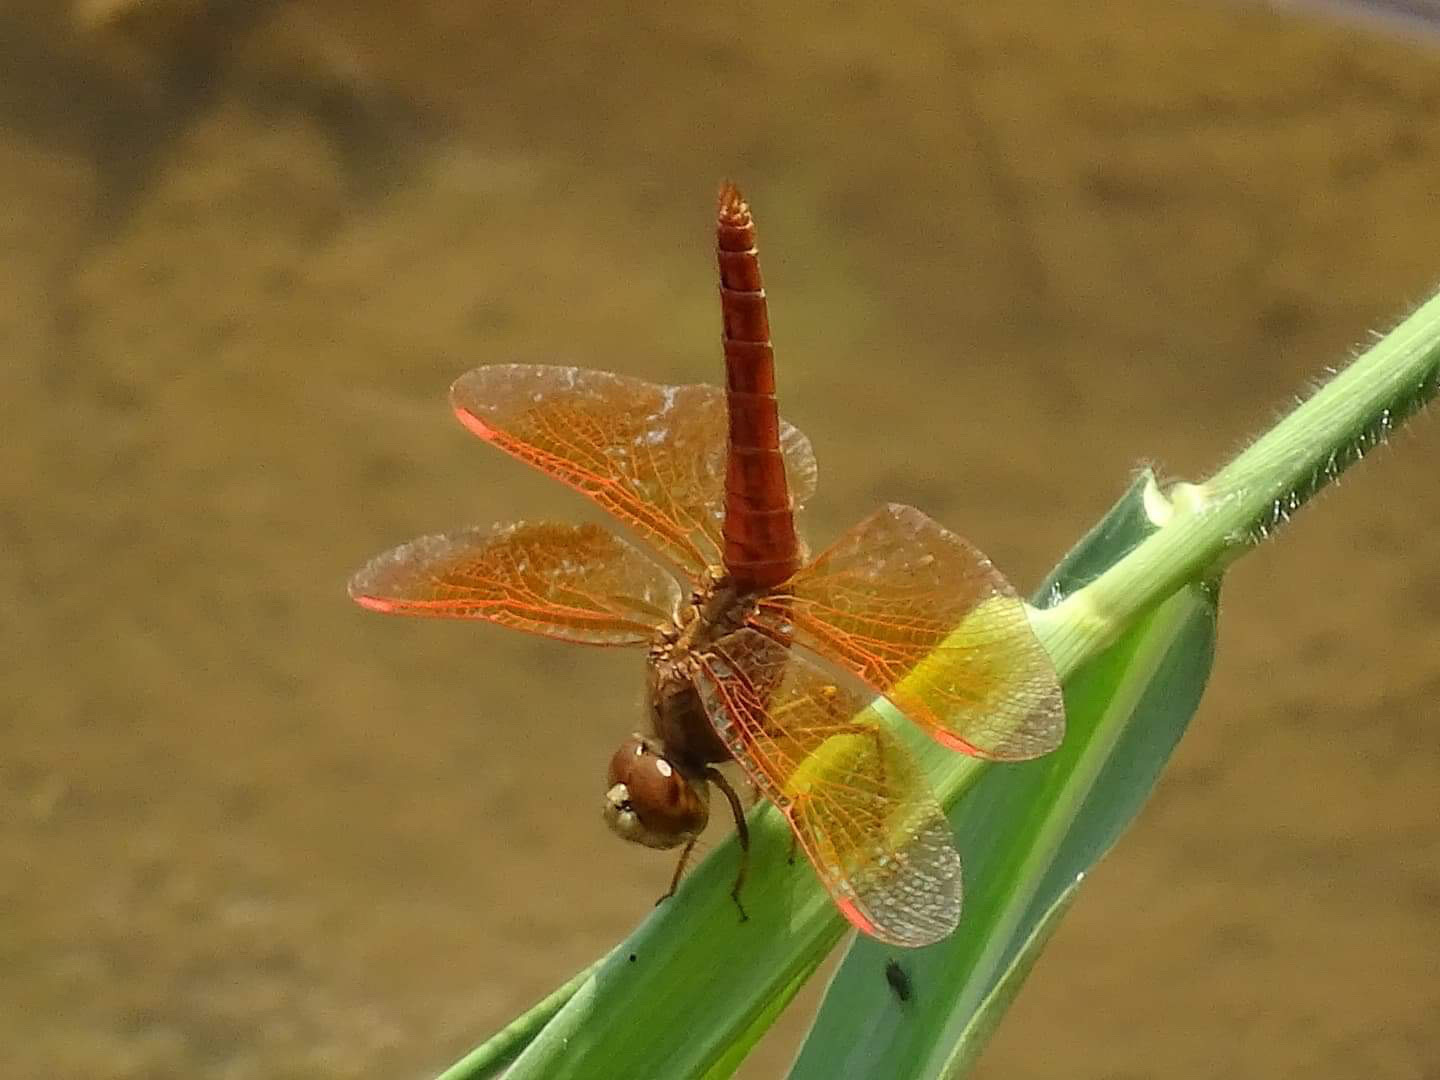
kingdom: Animalia
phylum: Arthropoda
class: Insecta
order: Odonata
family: Libellulidae
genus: Brachythemis
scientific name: Brachythemis contaminata
